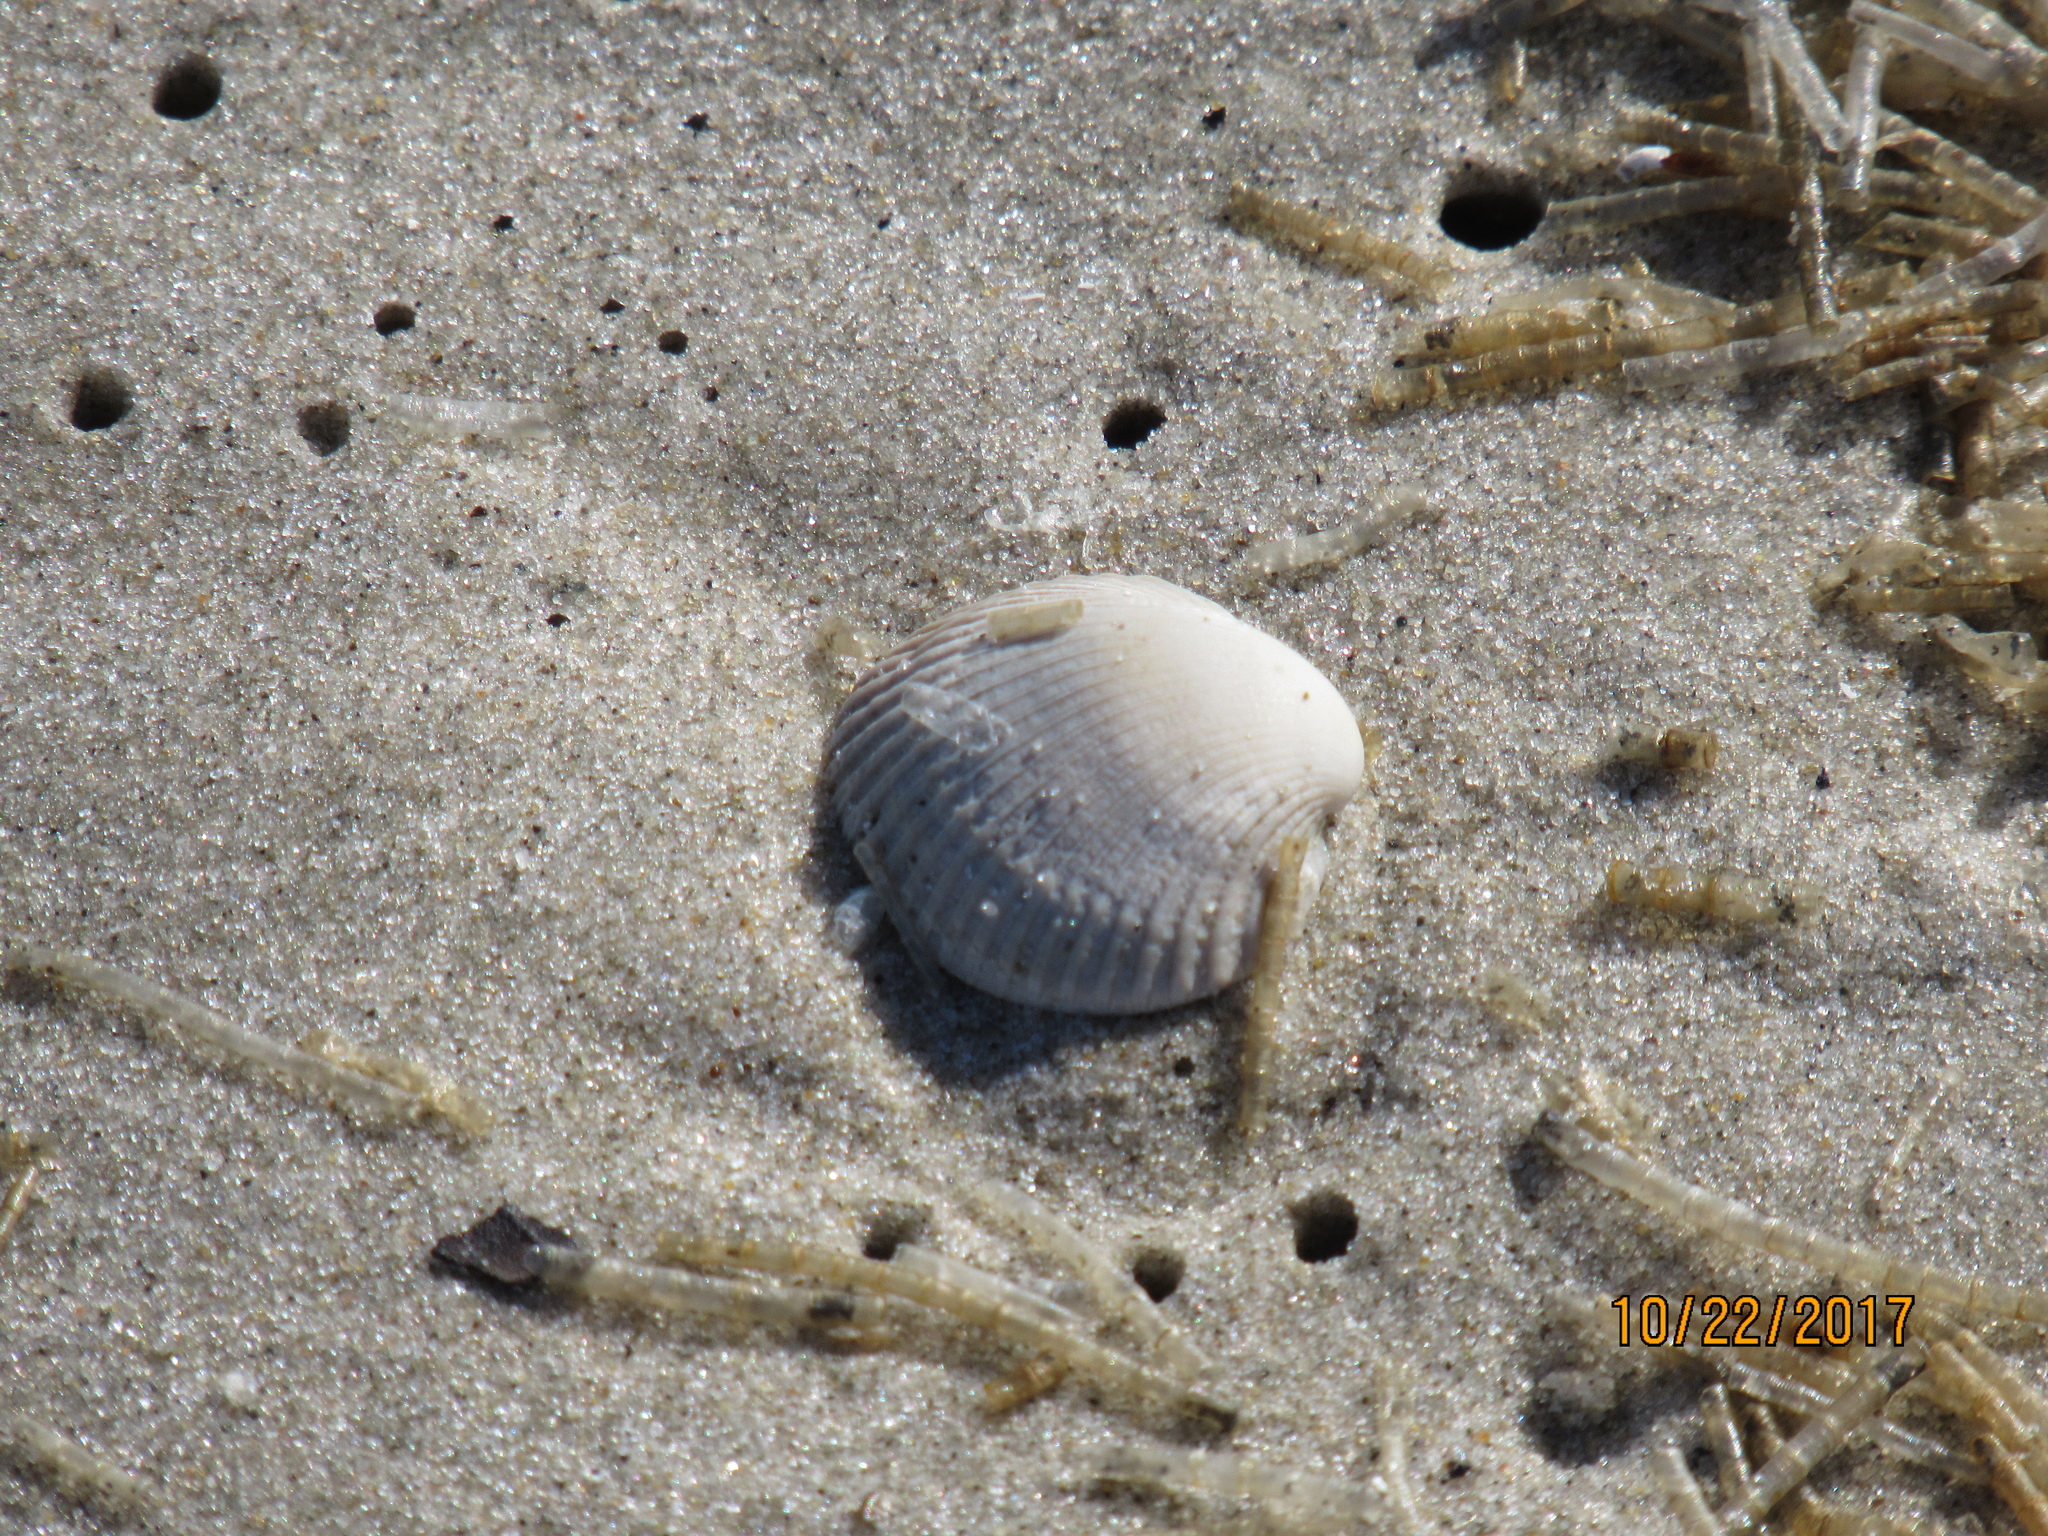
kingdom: Animalia
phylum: Mollusca
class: Bivalvia
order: Arcida
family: Arcidae
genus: Lunarca
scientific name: Lunarca ovalis
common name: Blood ark
